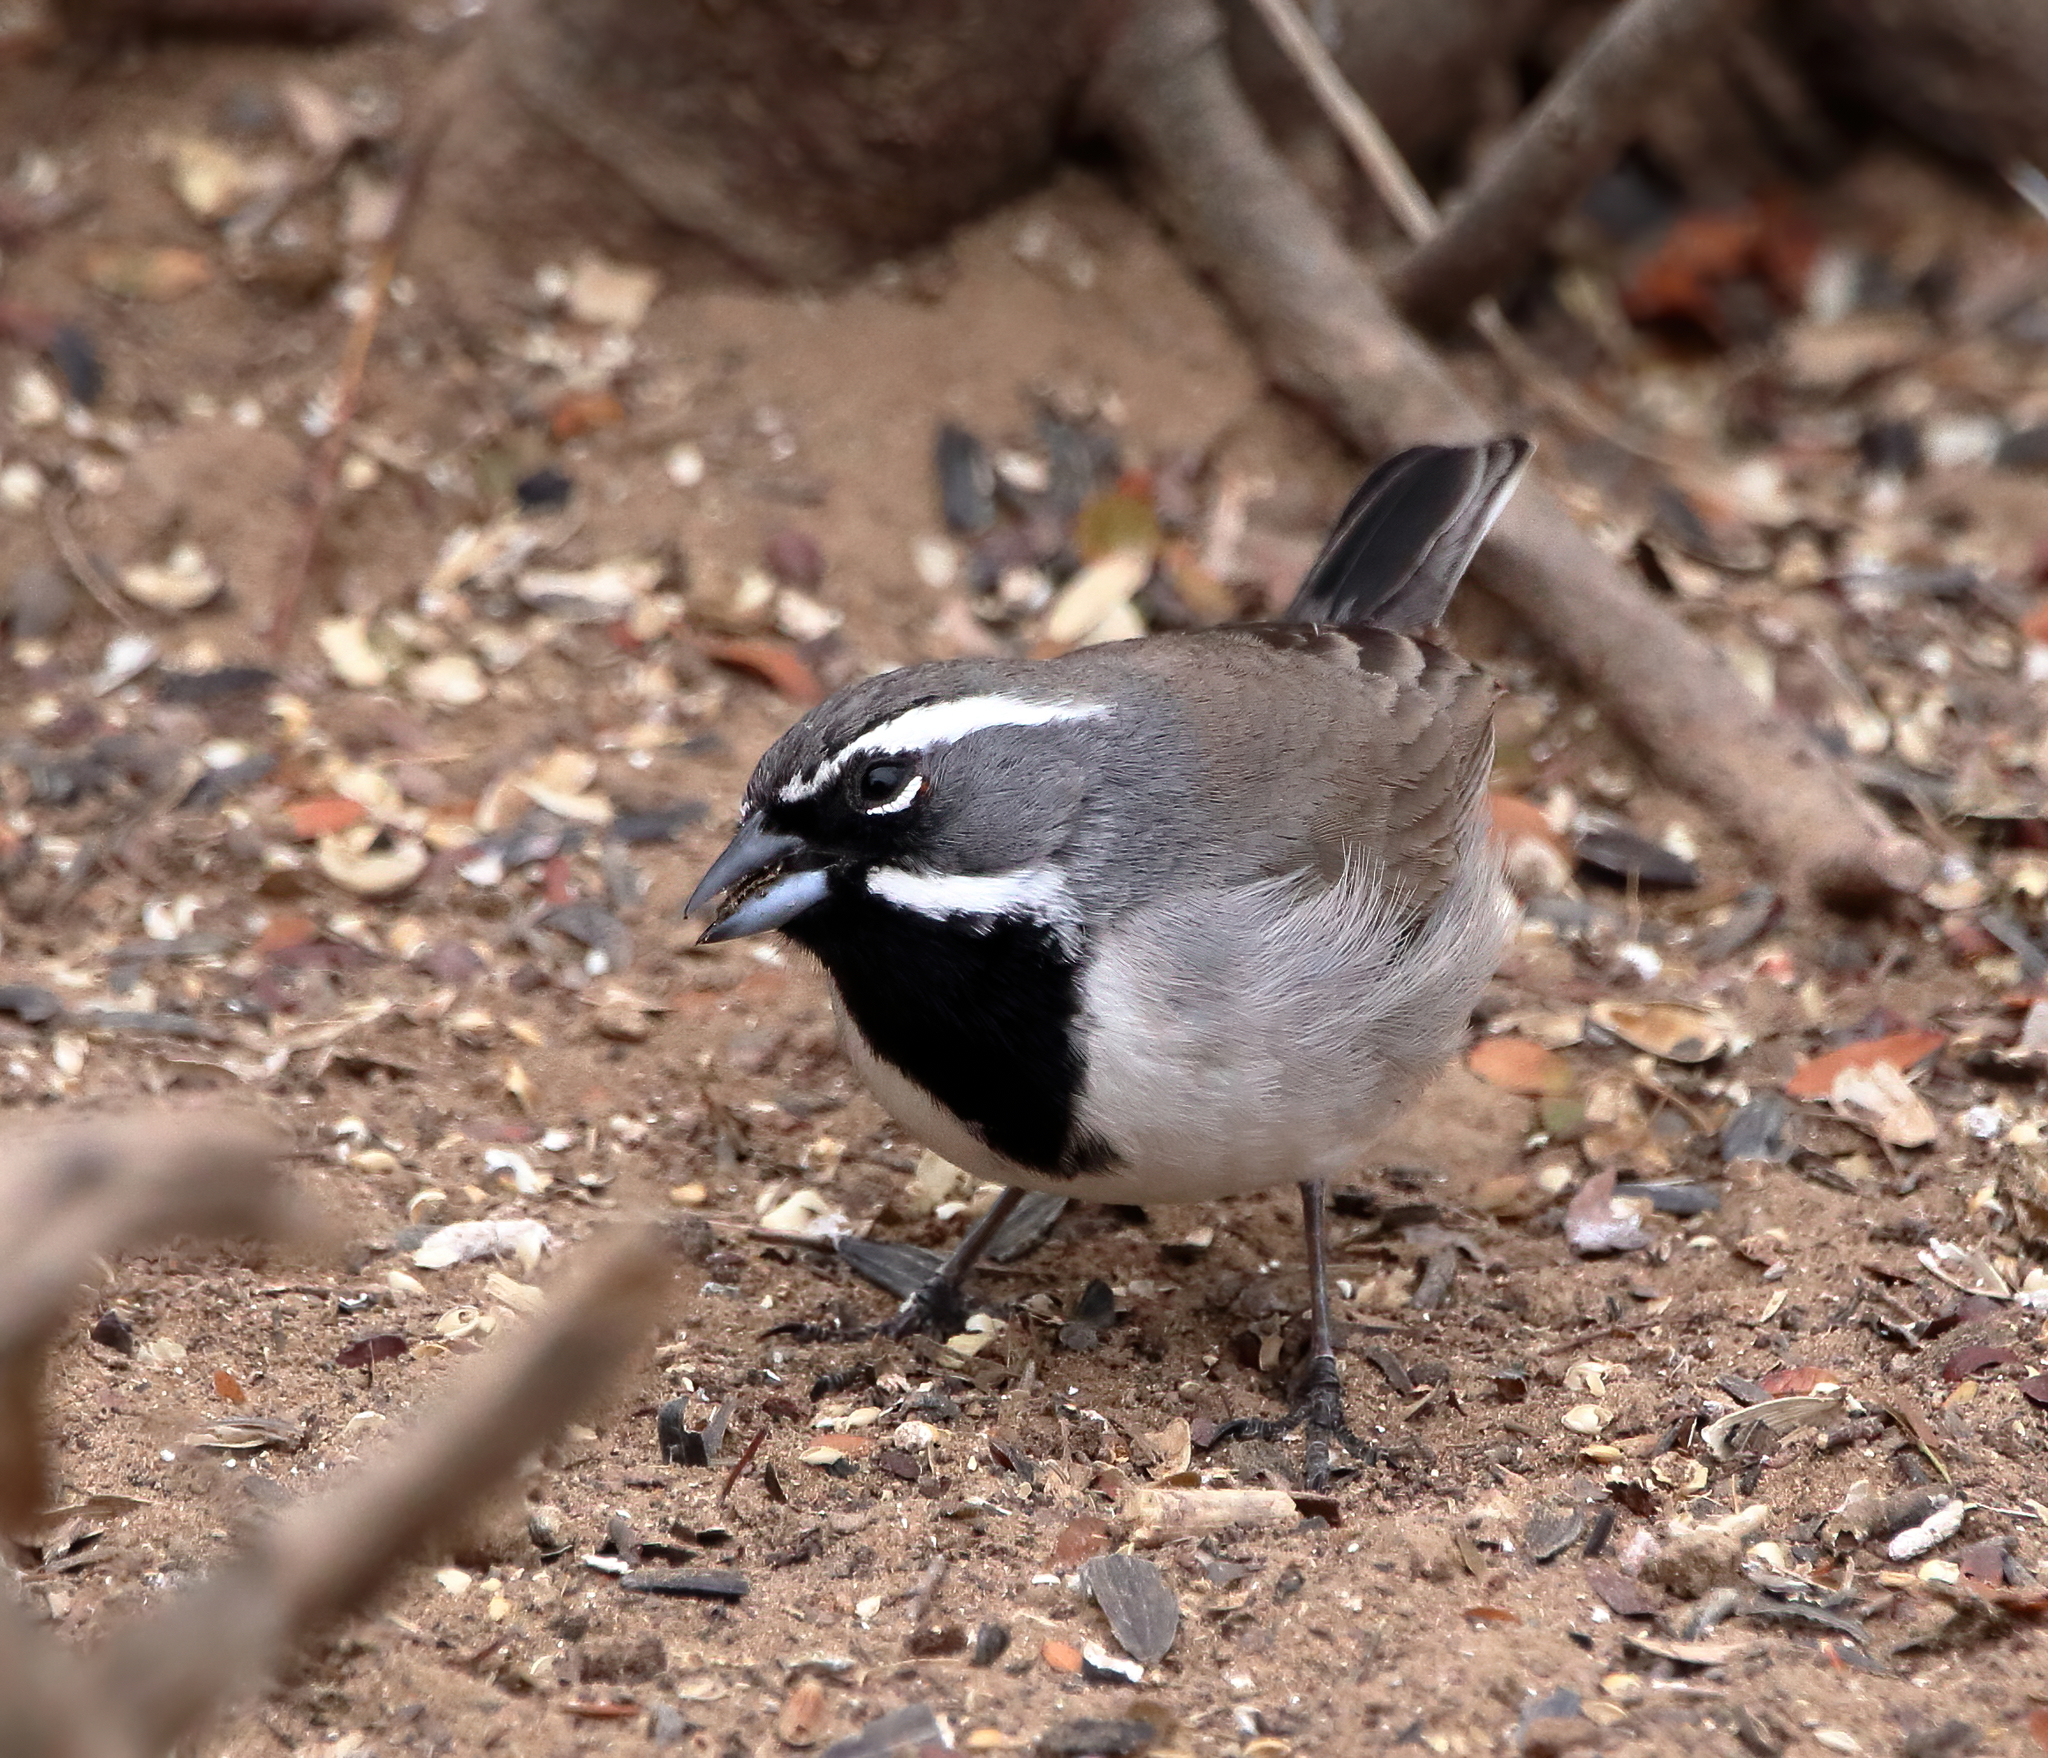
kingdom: Animalia
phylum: Chordata
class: Aves
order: Passeriformes
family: Passerellidae
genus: Amphispiza
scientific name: Amphispiza bilineata
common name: Black-throated sparrow
